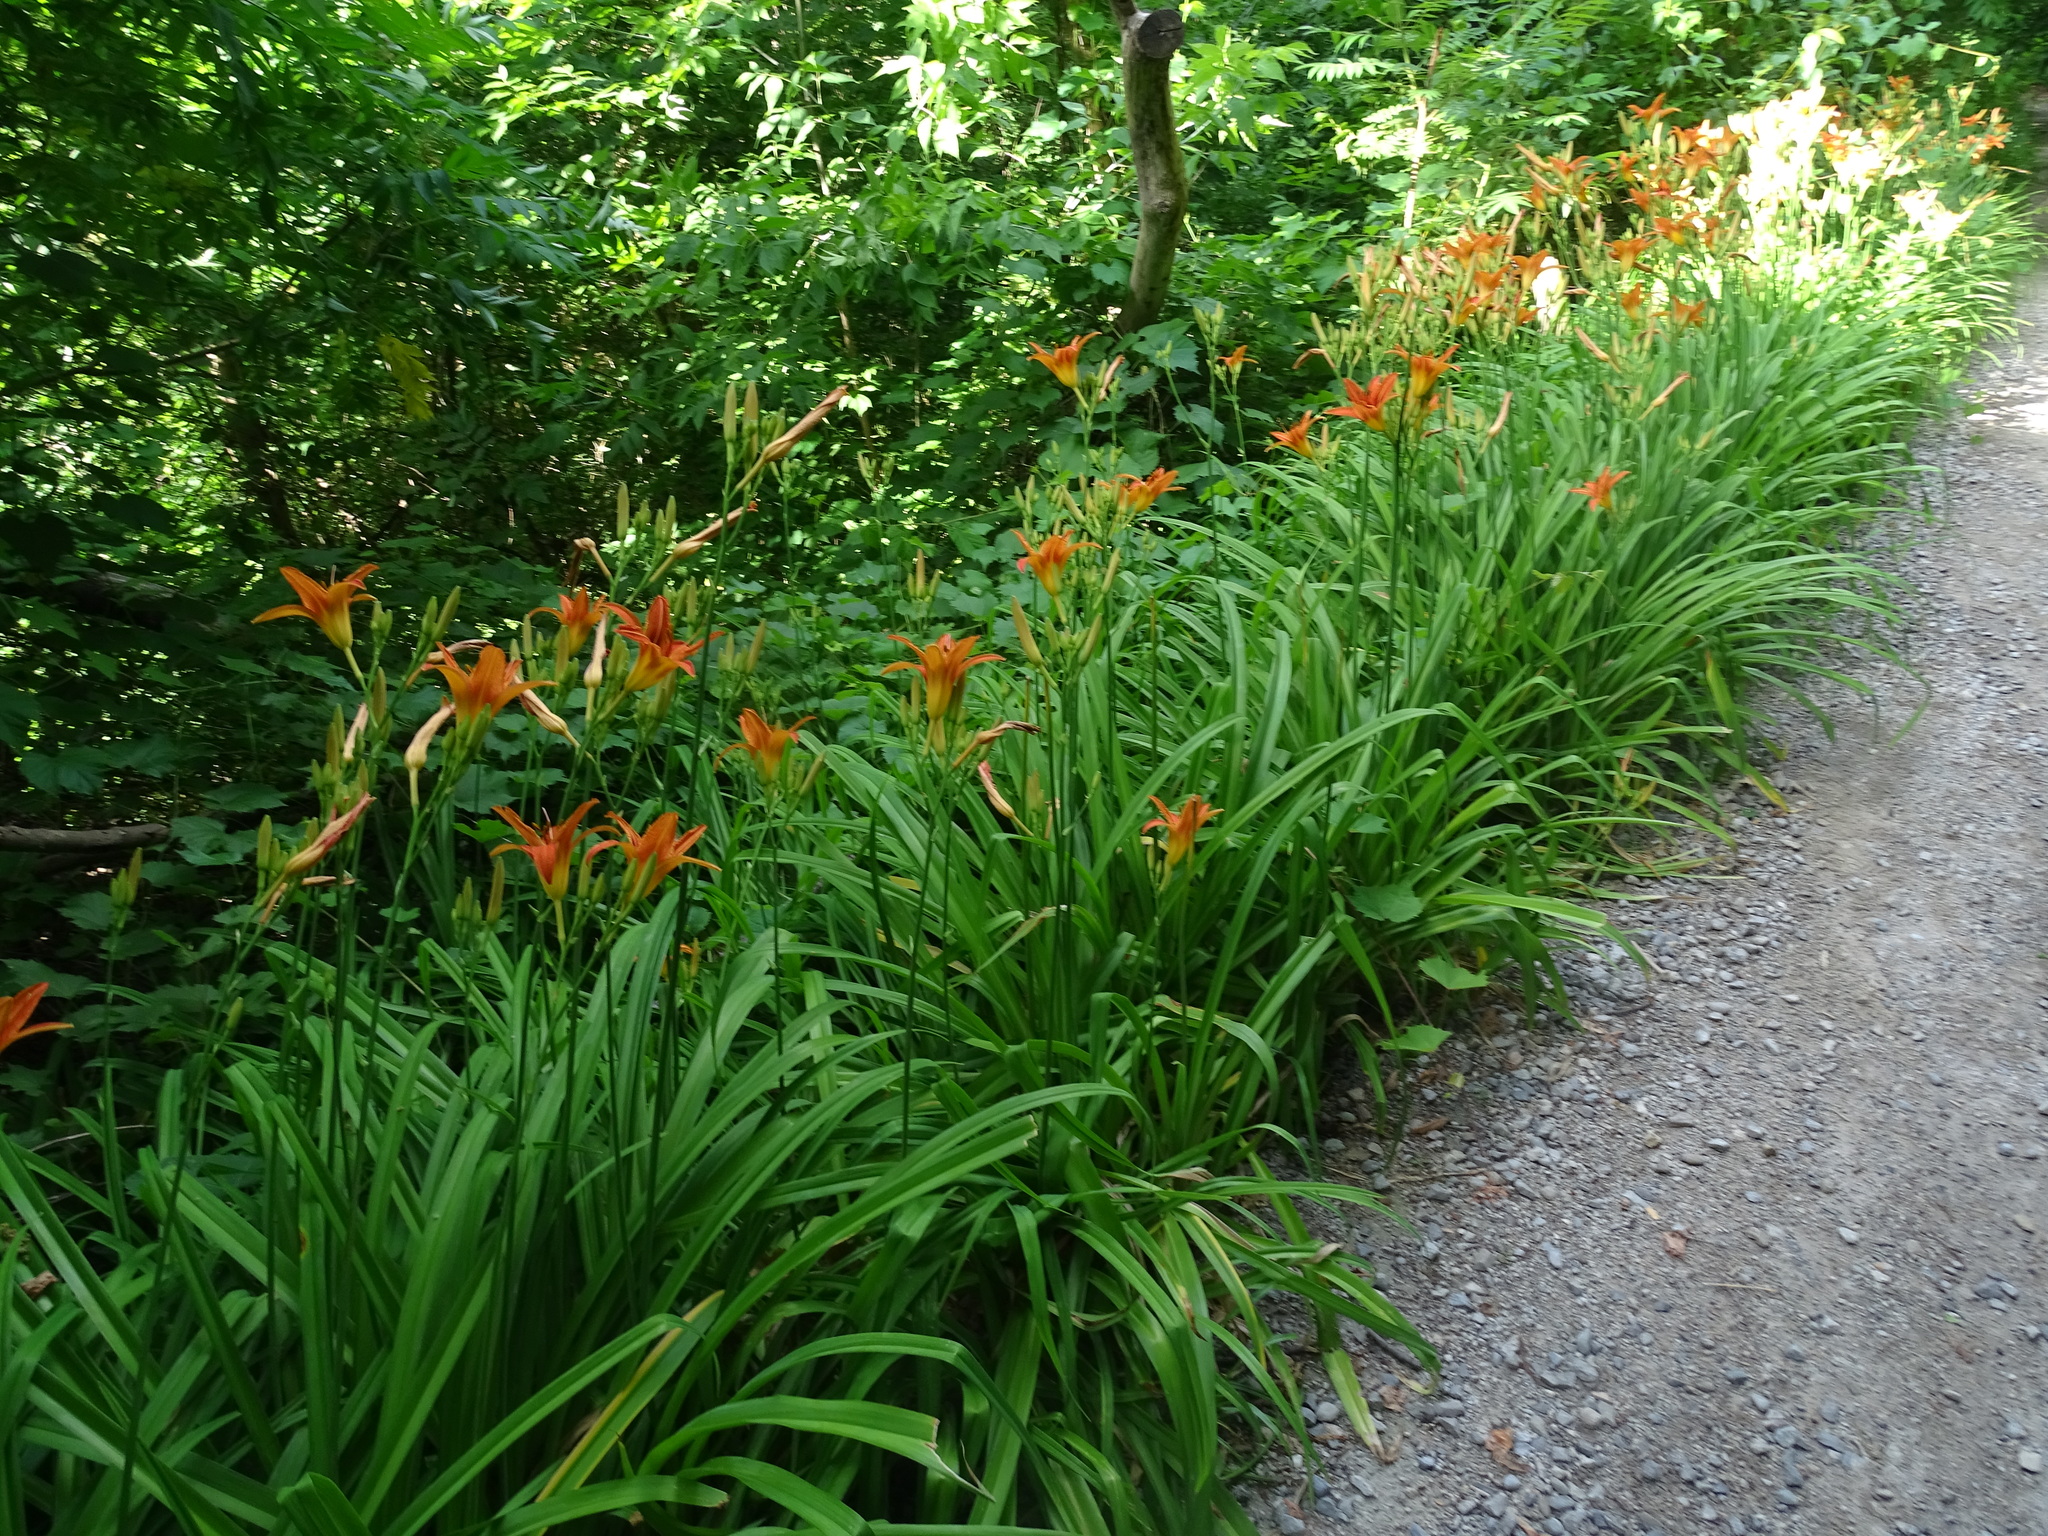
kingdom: Plantae
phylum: Tracheophyta
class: Liliopsida
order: Asparagales
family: Asphodelaceae
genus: Hemerocallis
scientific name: Hemerocallis fulva
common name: Orange day-lily
